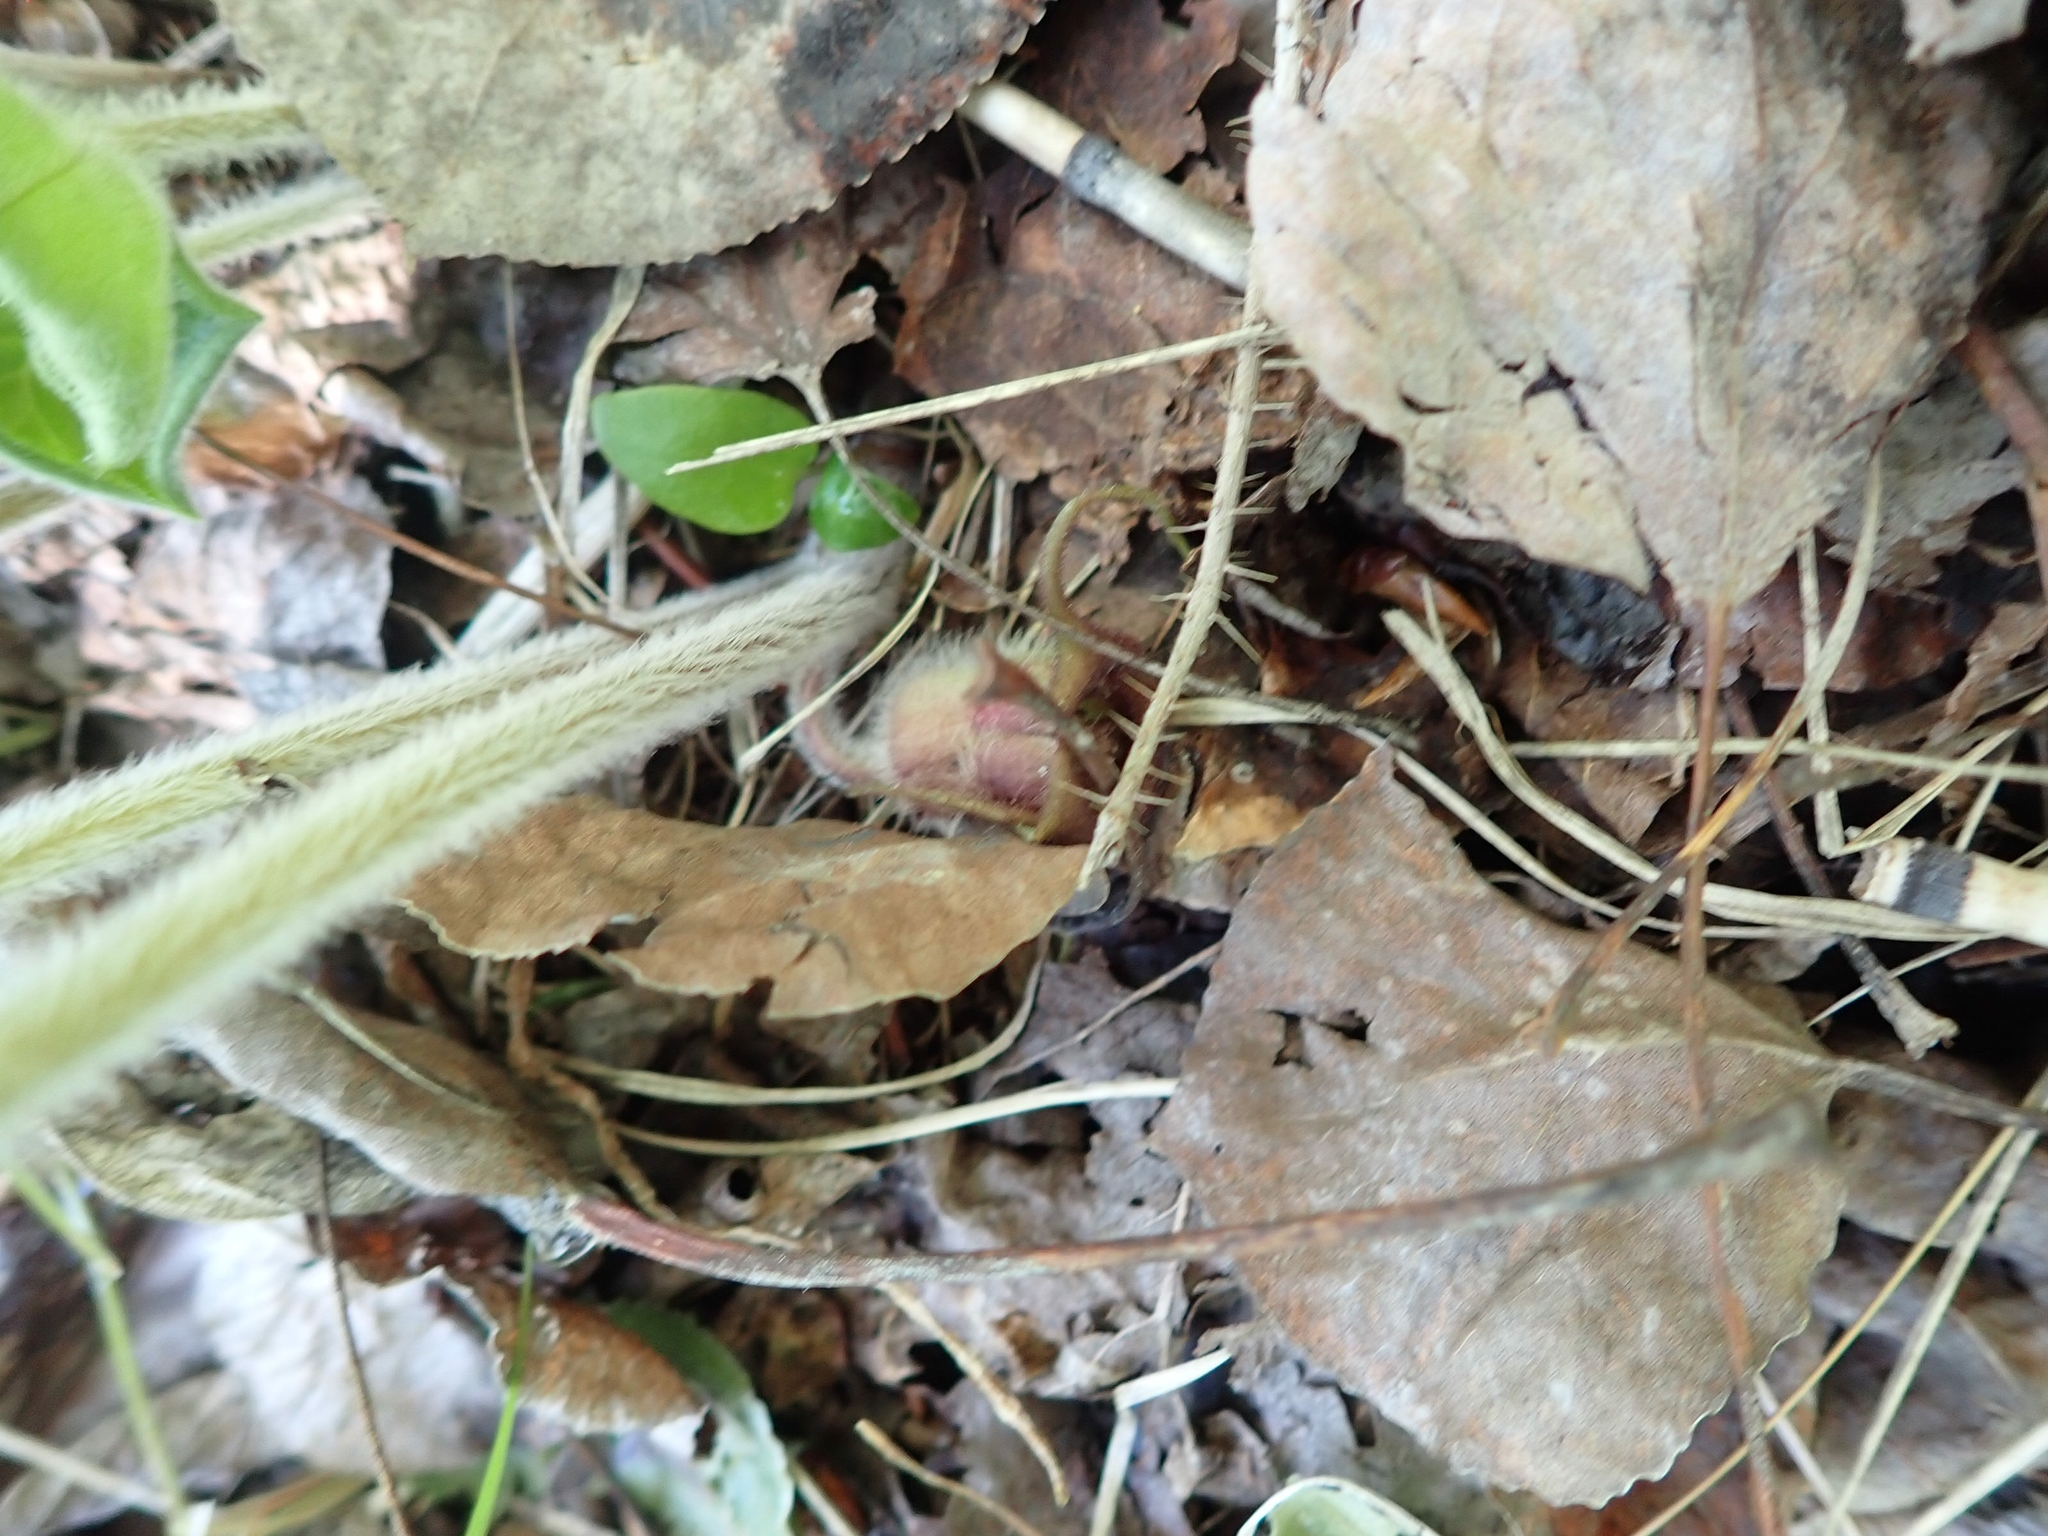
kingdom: Plantae
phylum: Tracheophyta
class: Magnoliopsida
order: Piperales
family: Aristolochiaceae
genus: Asarum
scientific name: Asarum canadense
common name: Wild ginger
